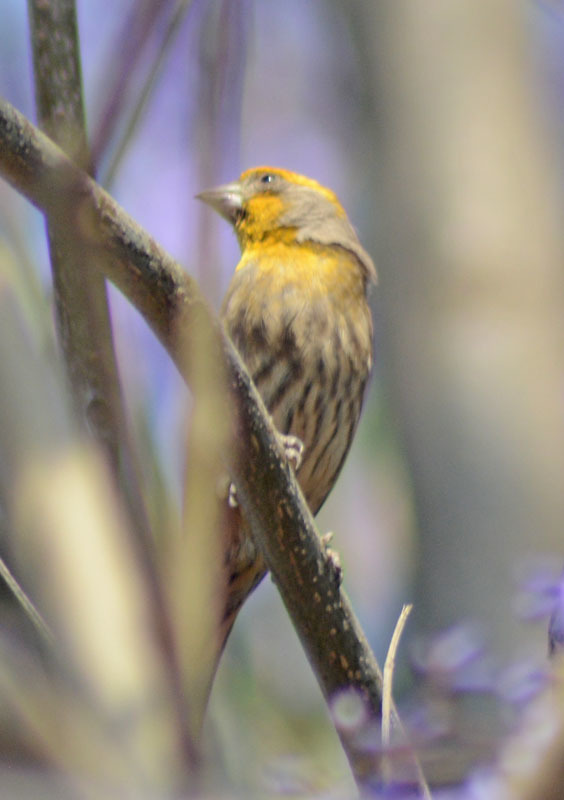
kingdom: Animalia
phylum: Chordata
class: Aves
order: Passeriformes
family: Fringillidae
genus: Haemorhous
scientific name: Haemorhous mexicanus
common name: House finch
